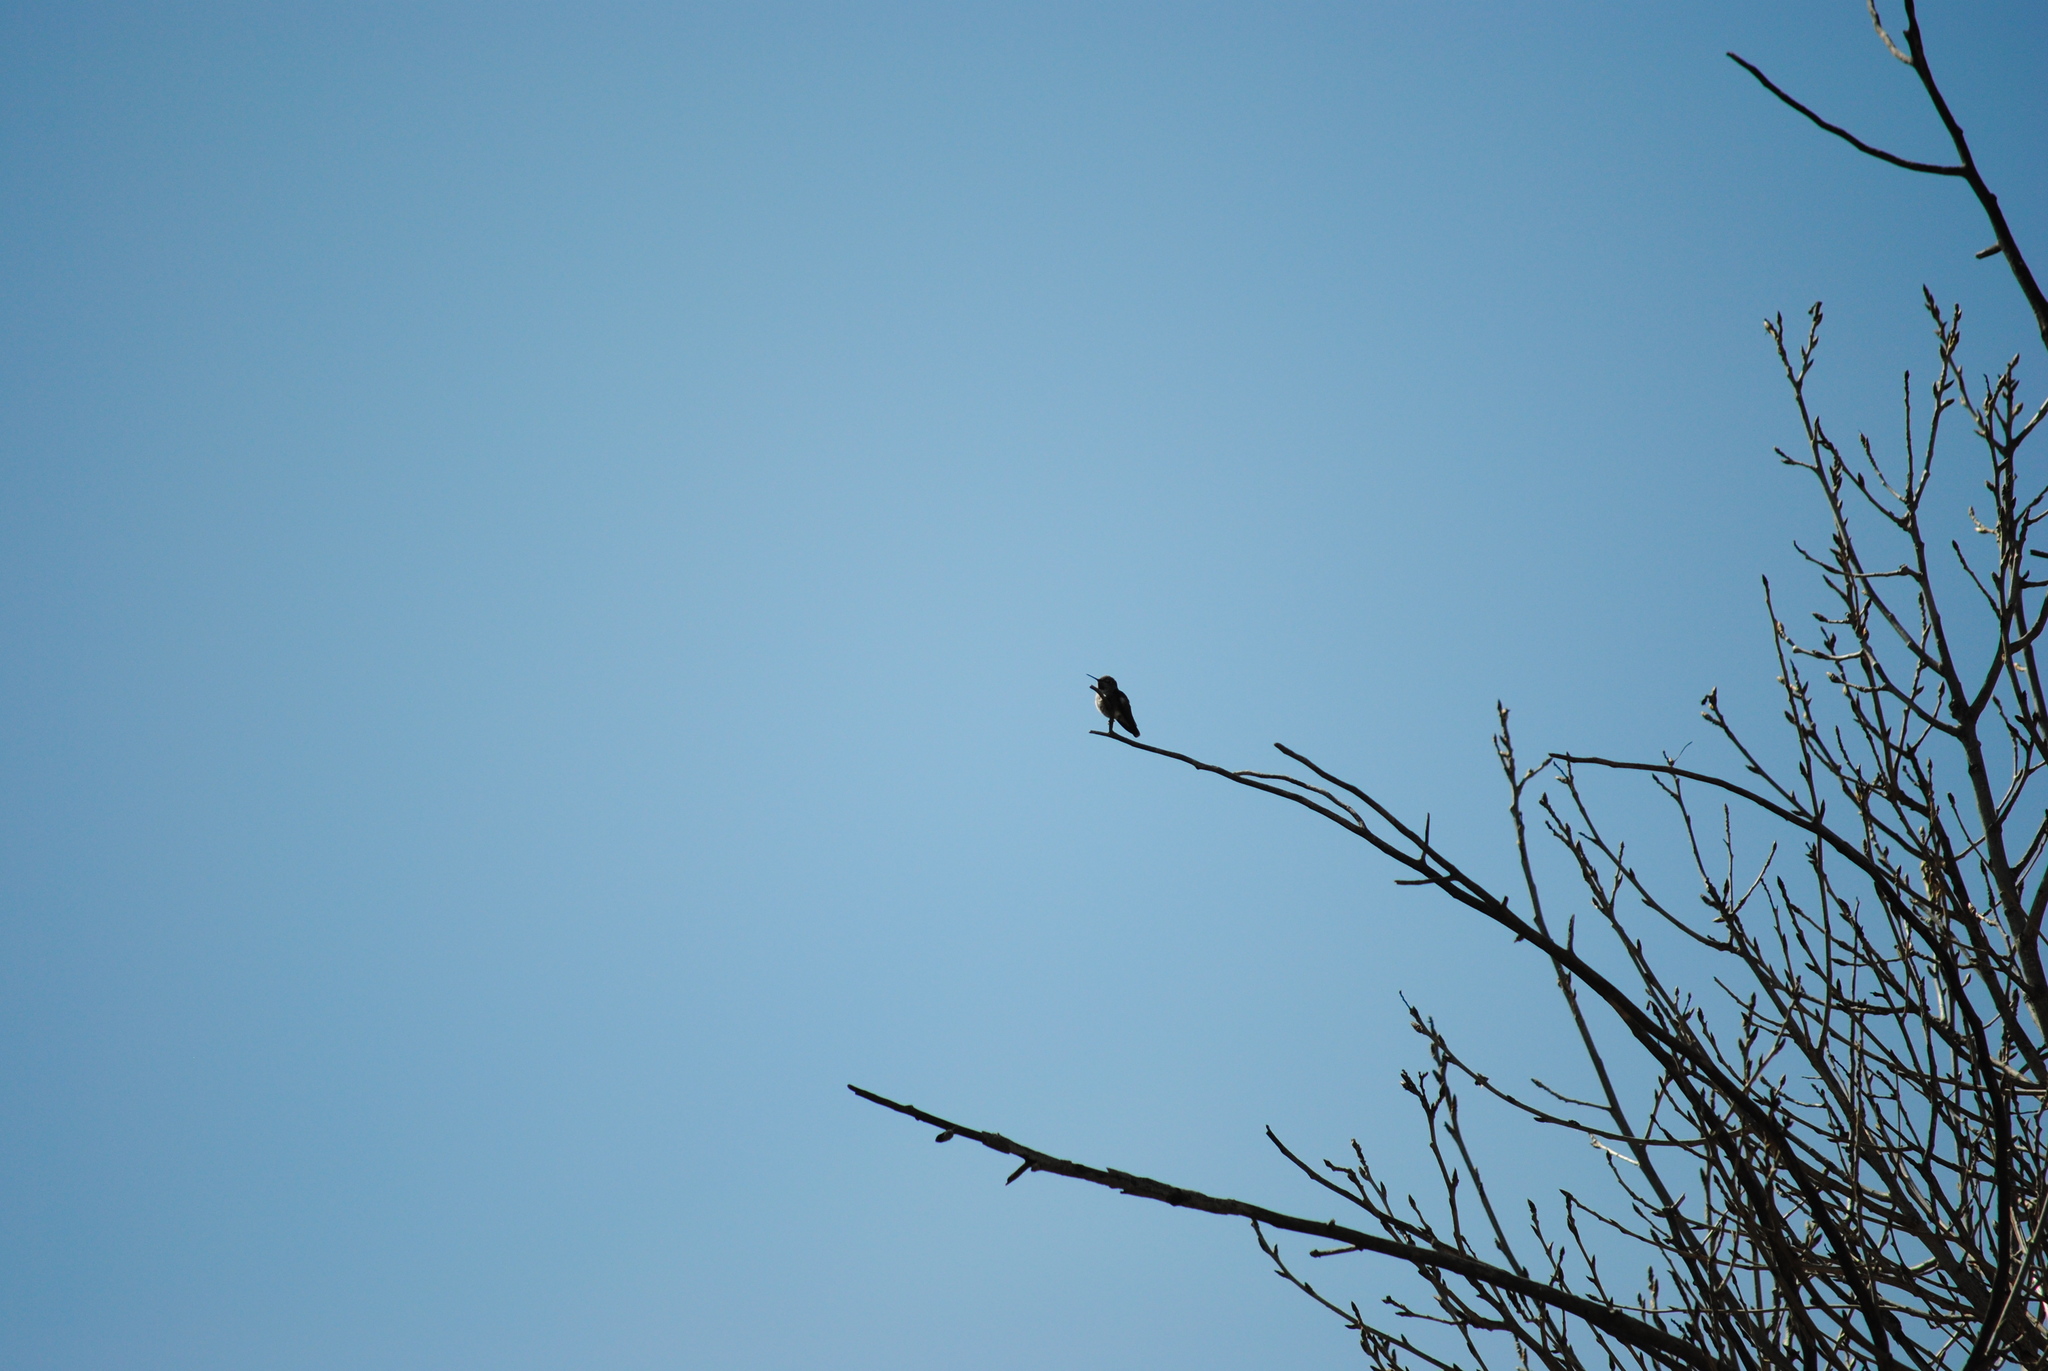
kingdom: Animalia
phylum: Chordata
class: Aves
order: Apodiformes
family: Trochilidae
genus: Calypte
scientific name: Calypte anna
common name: Anna's hummingbird
